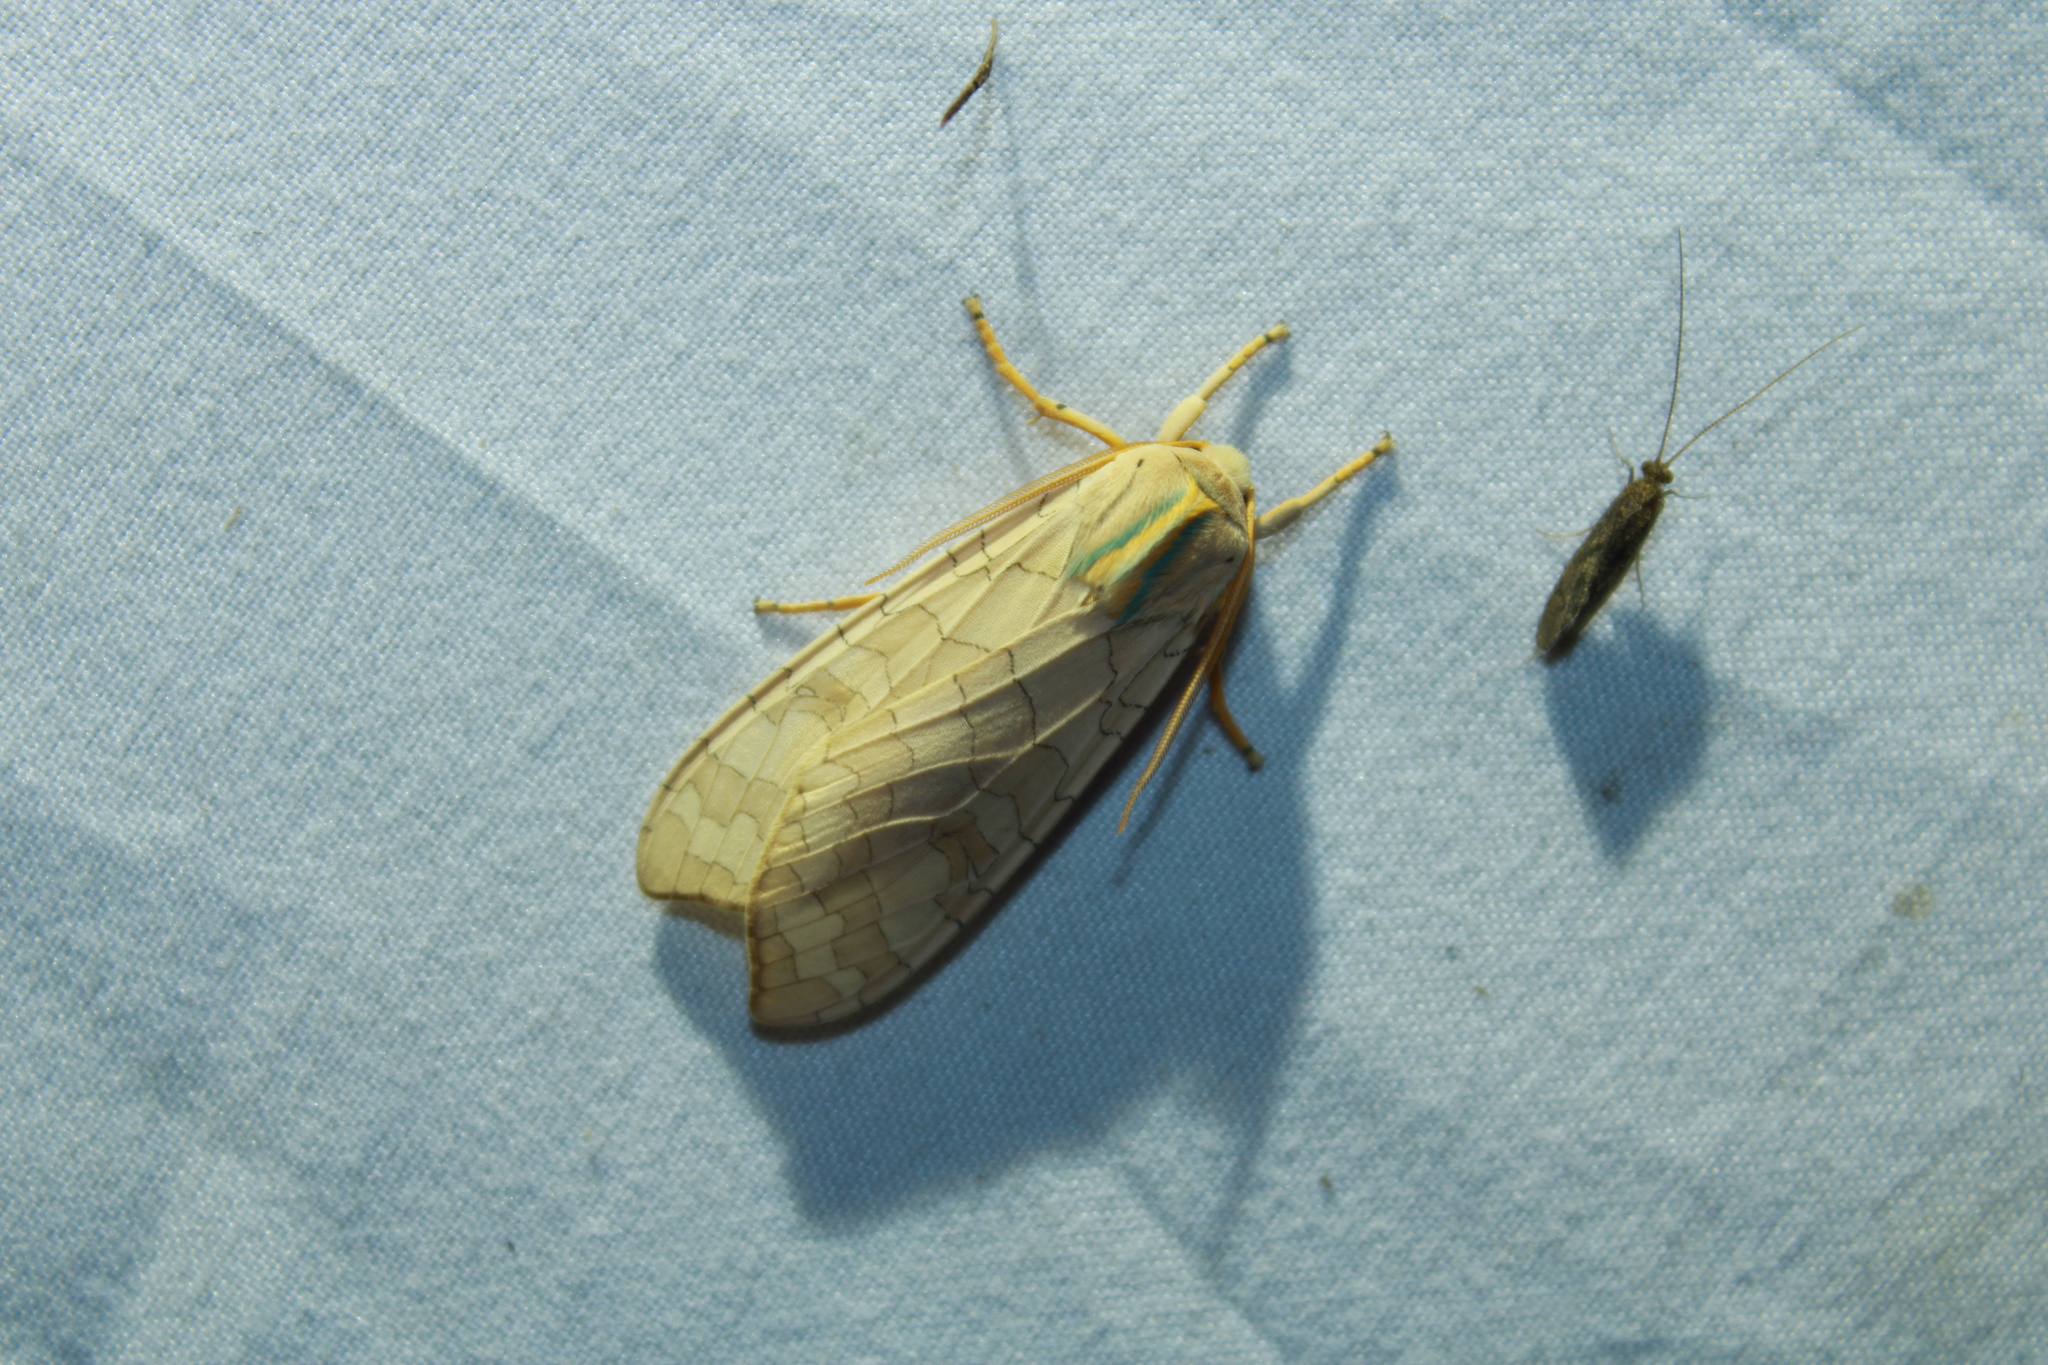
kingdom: Animalia
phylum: Arthropoda
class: Insecta
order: Lepidoptera
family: Erebidae
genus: Halysidota
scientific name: Halysidota
